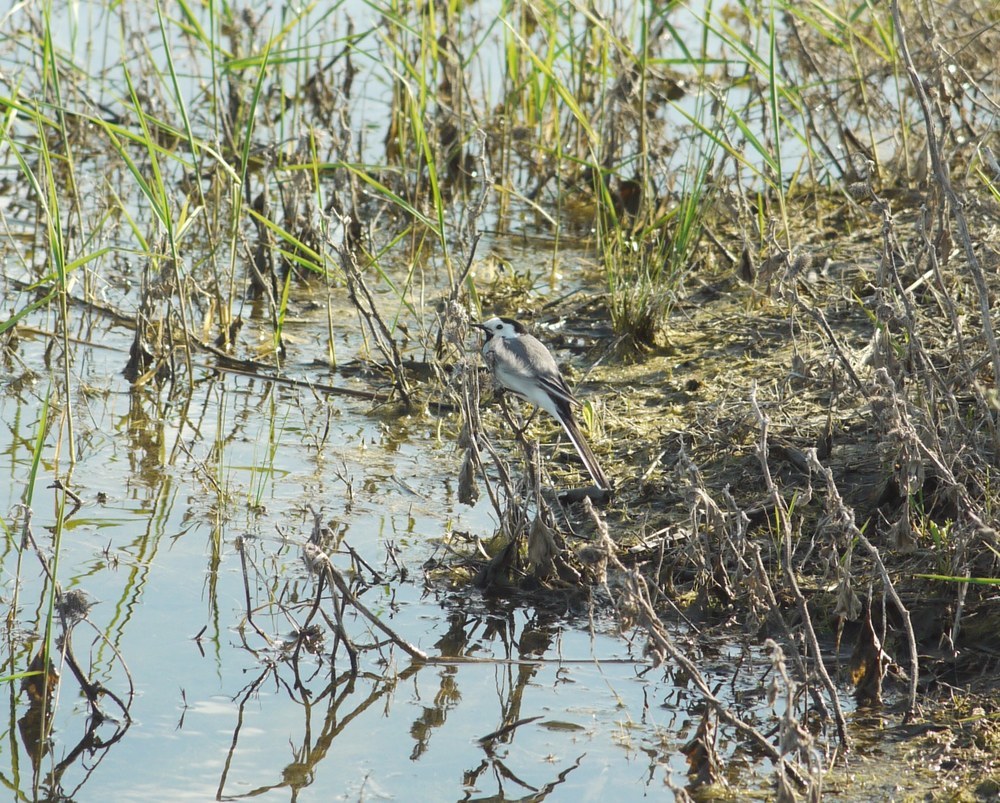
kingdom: Animalia
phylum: Chordata
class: Aves
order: Passeriformes
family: Motacillidae
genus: Motacilla
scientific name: Motacilla alba
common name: White wagtail
